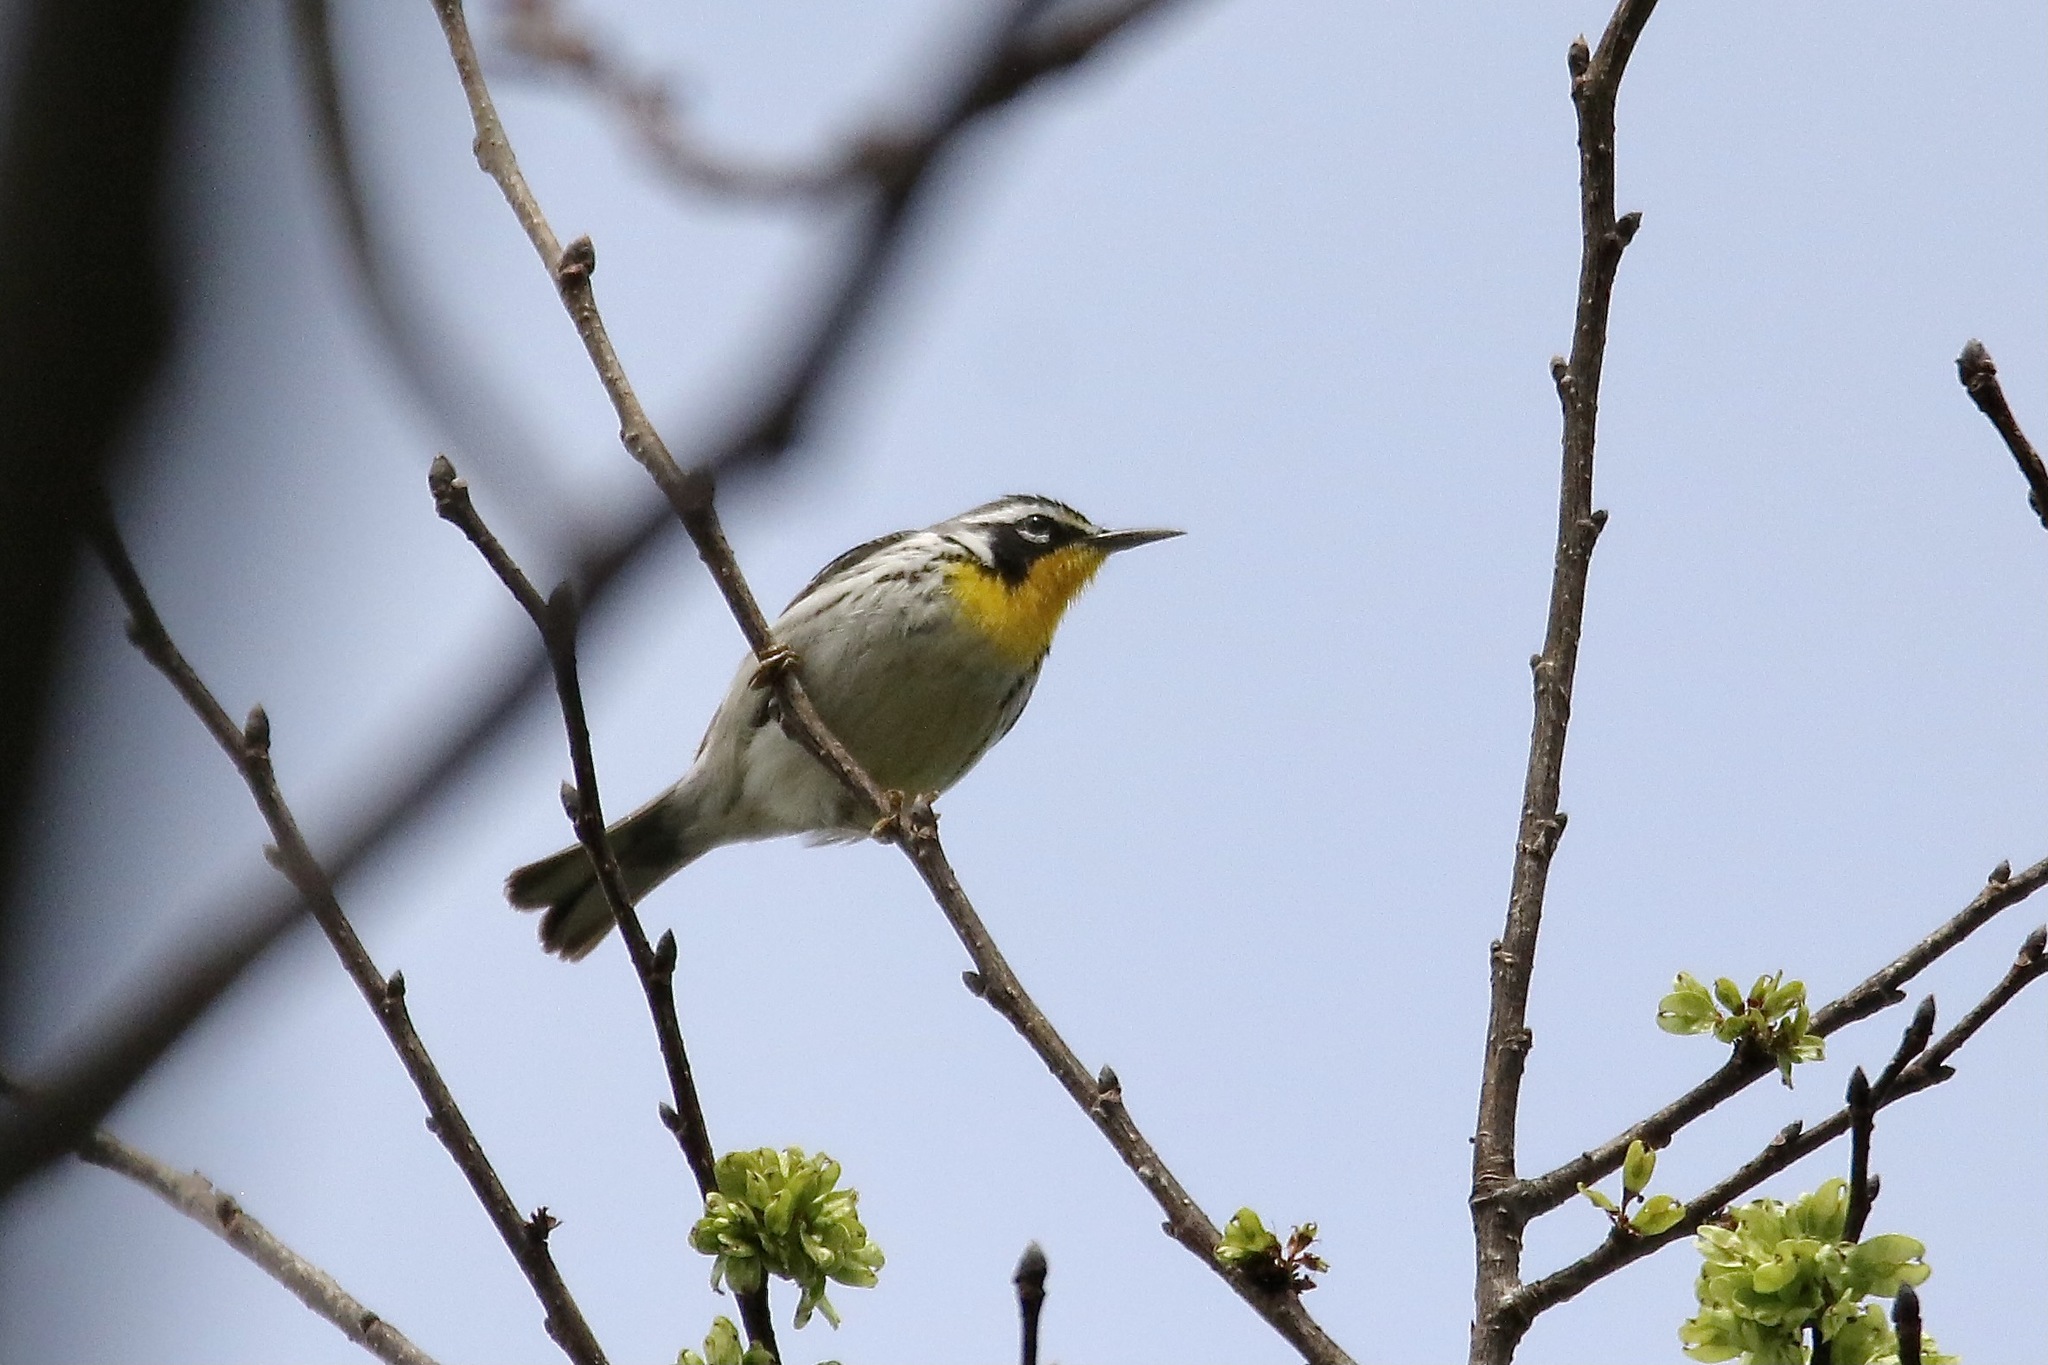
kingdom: Animalia
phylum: Chordata
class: Aves
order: Passeriformes
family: Parulidae
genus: Setophaga
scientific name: Setophaga dominica
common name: Yellow-throated warbler
